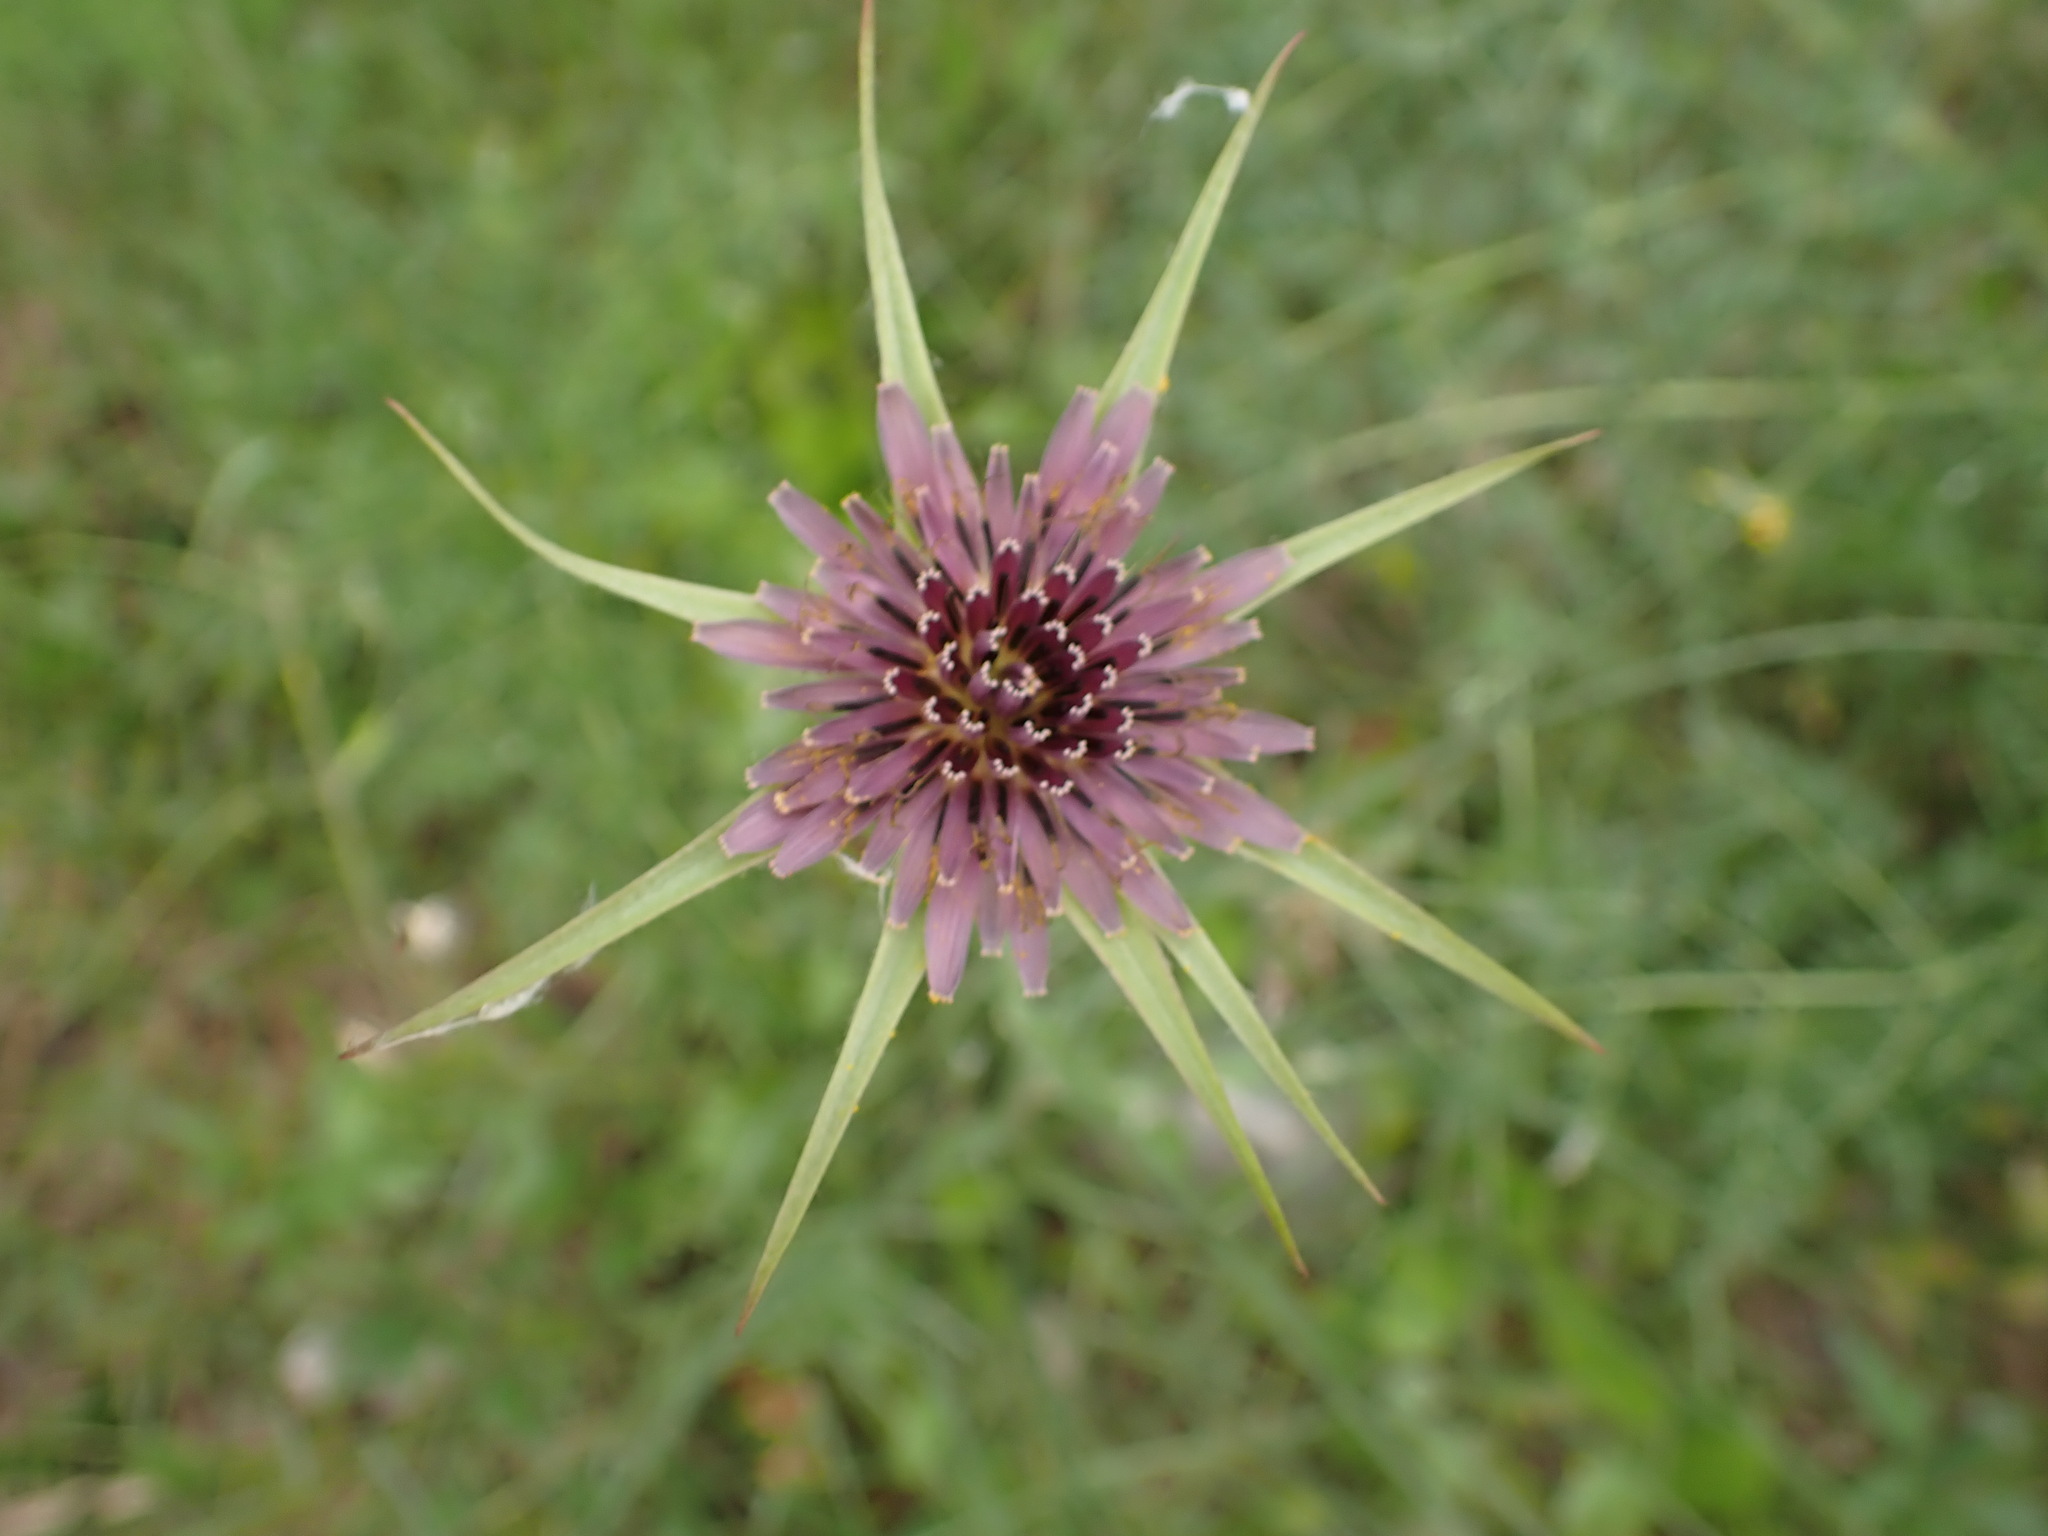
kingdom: Plantae
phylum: Tracheophyta
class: Magnoliopsida
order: Asterales
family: Asteraceae
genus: Tragopogon
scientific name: Tragopogon porrifolius
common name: Salsify
